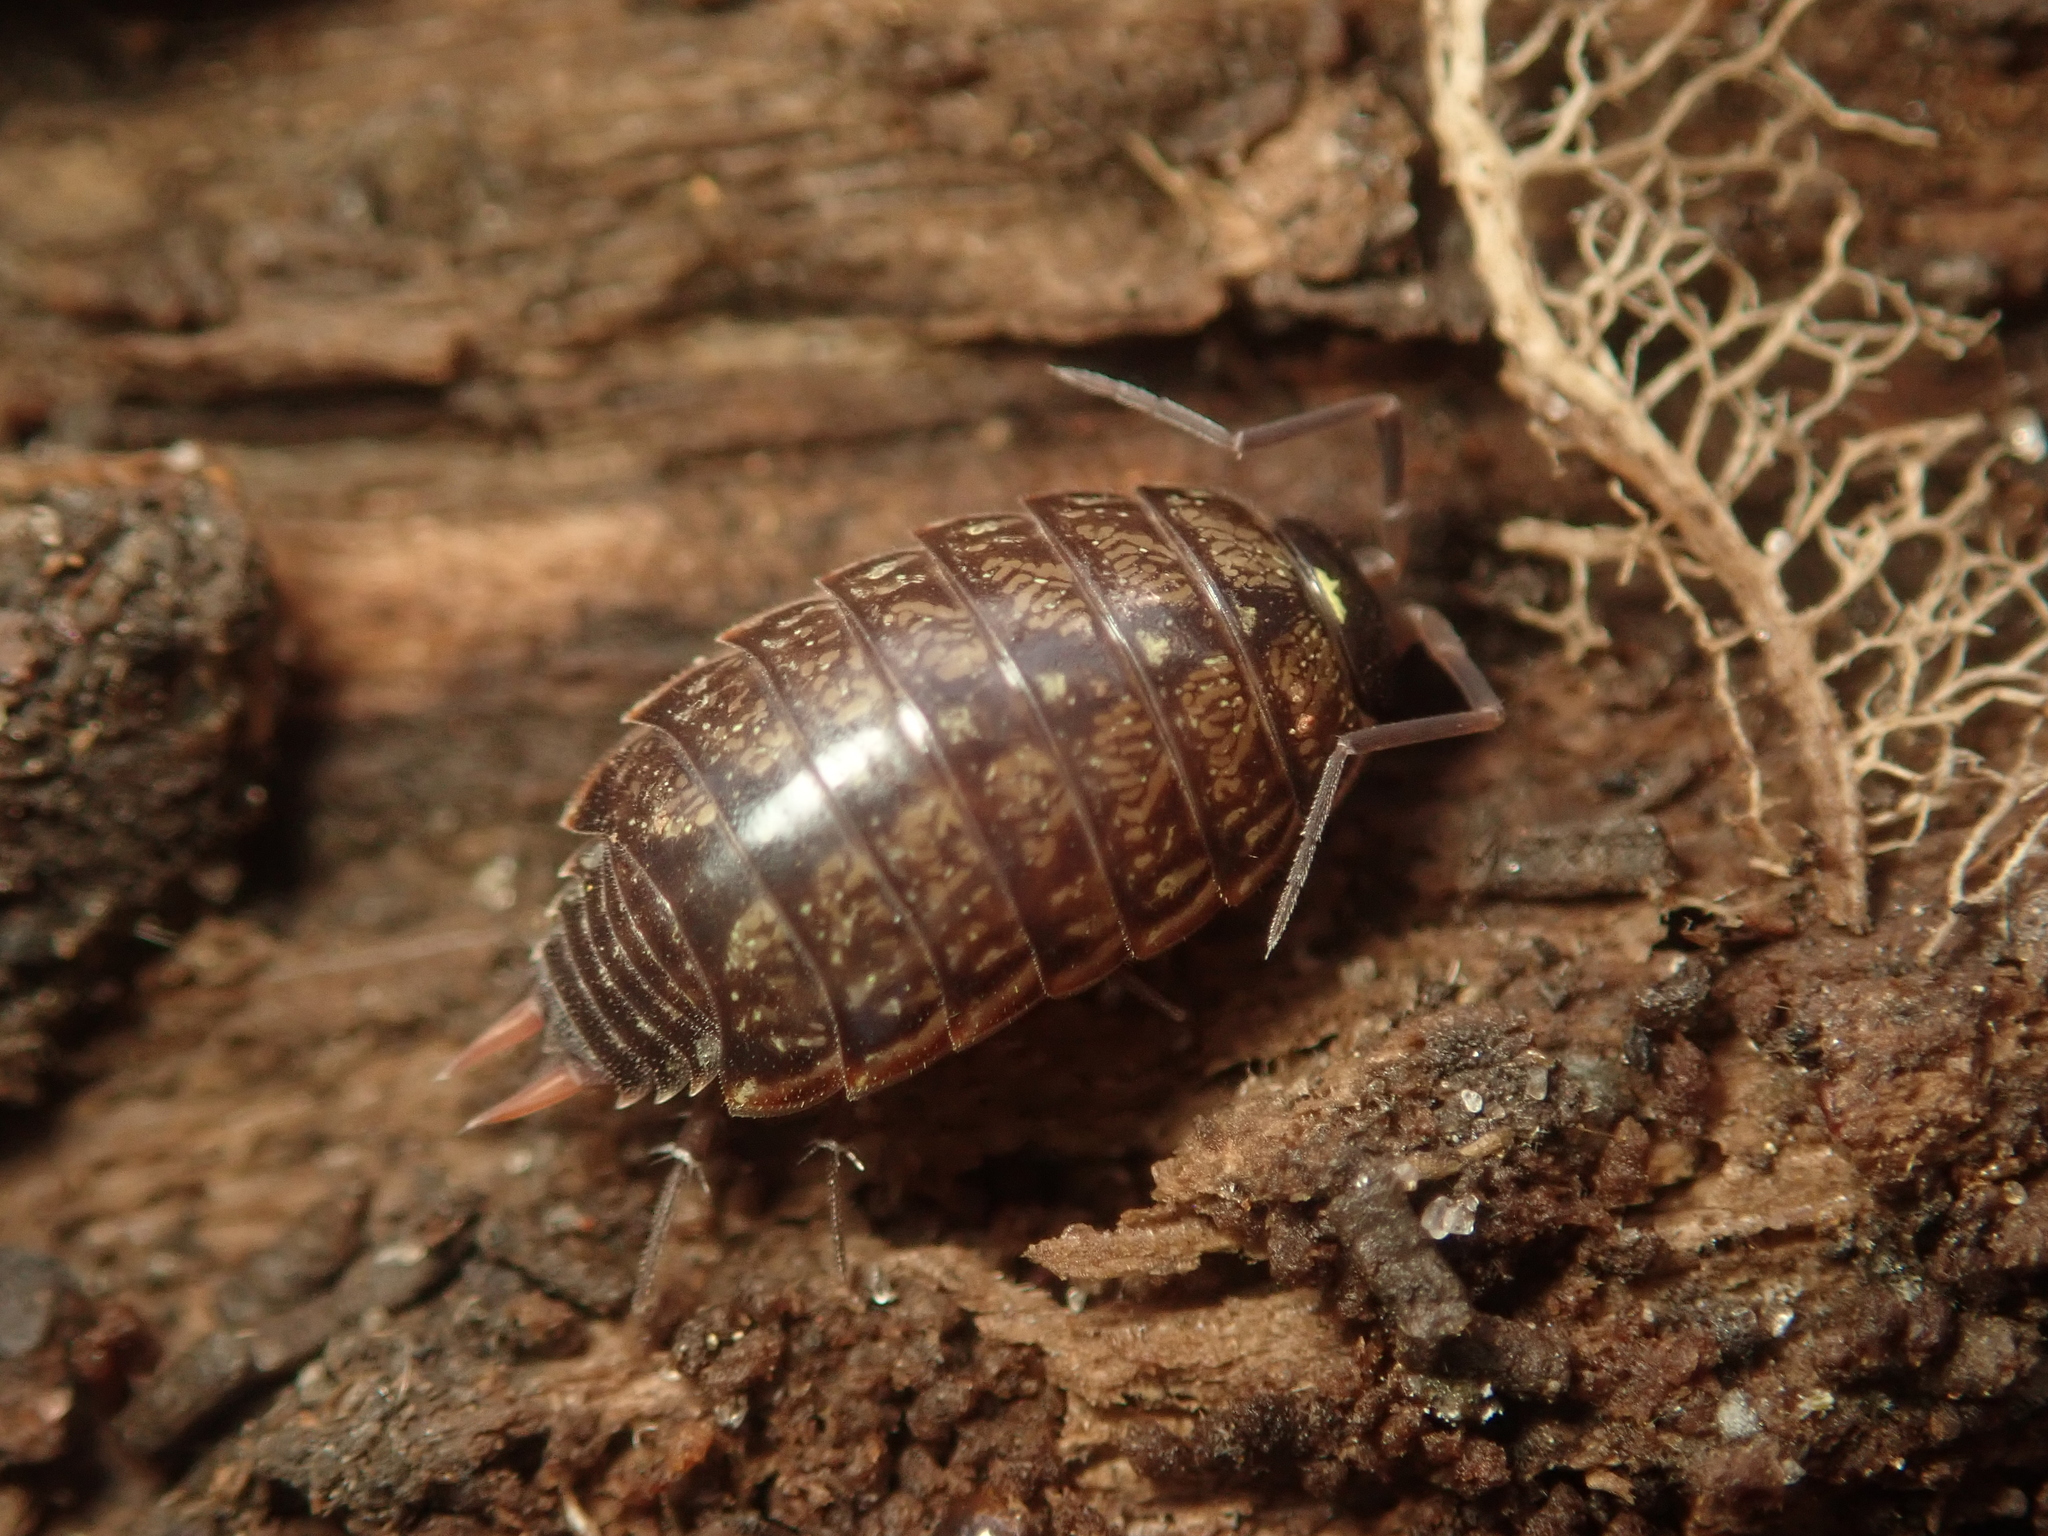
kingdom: Animalia
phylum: Arthropoda
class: Malacostraca
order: Isopoda
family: Philosciidae
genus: Philoscia
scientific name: Philoscia muscorum
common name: Common striped woodlouse
